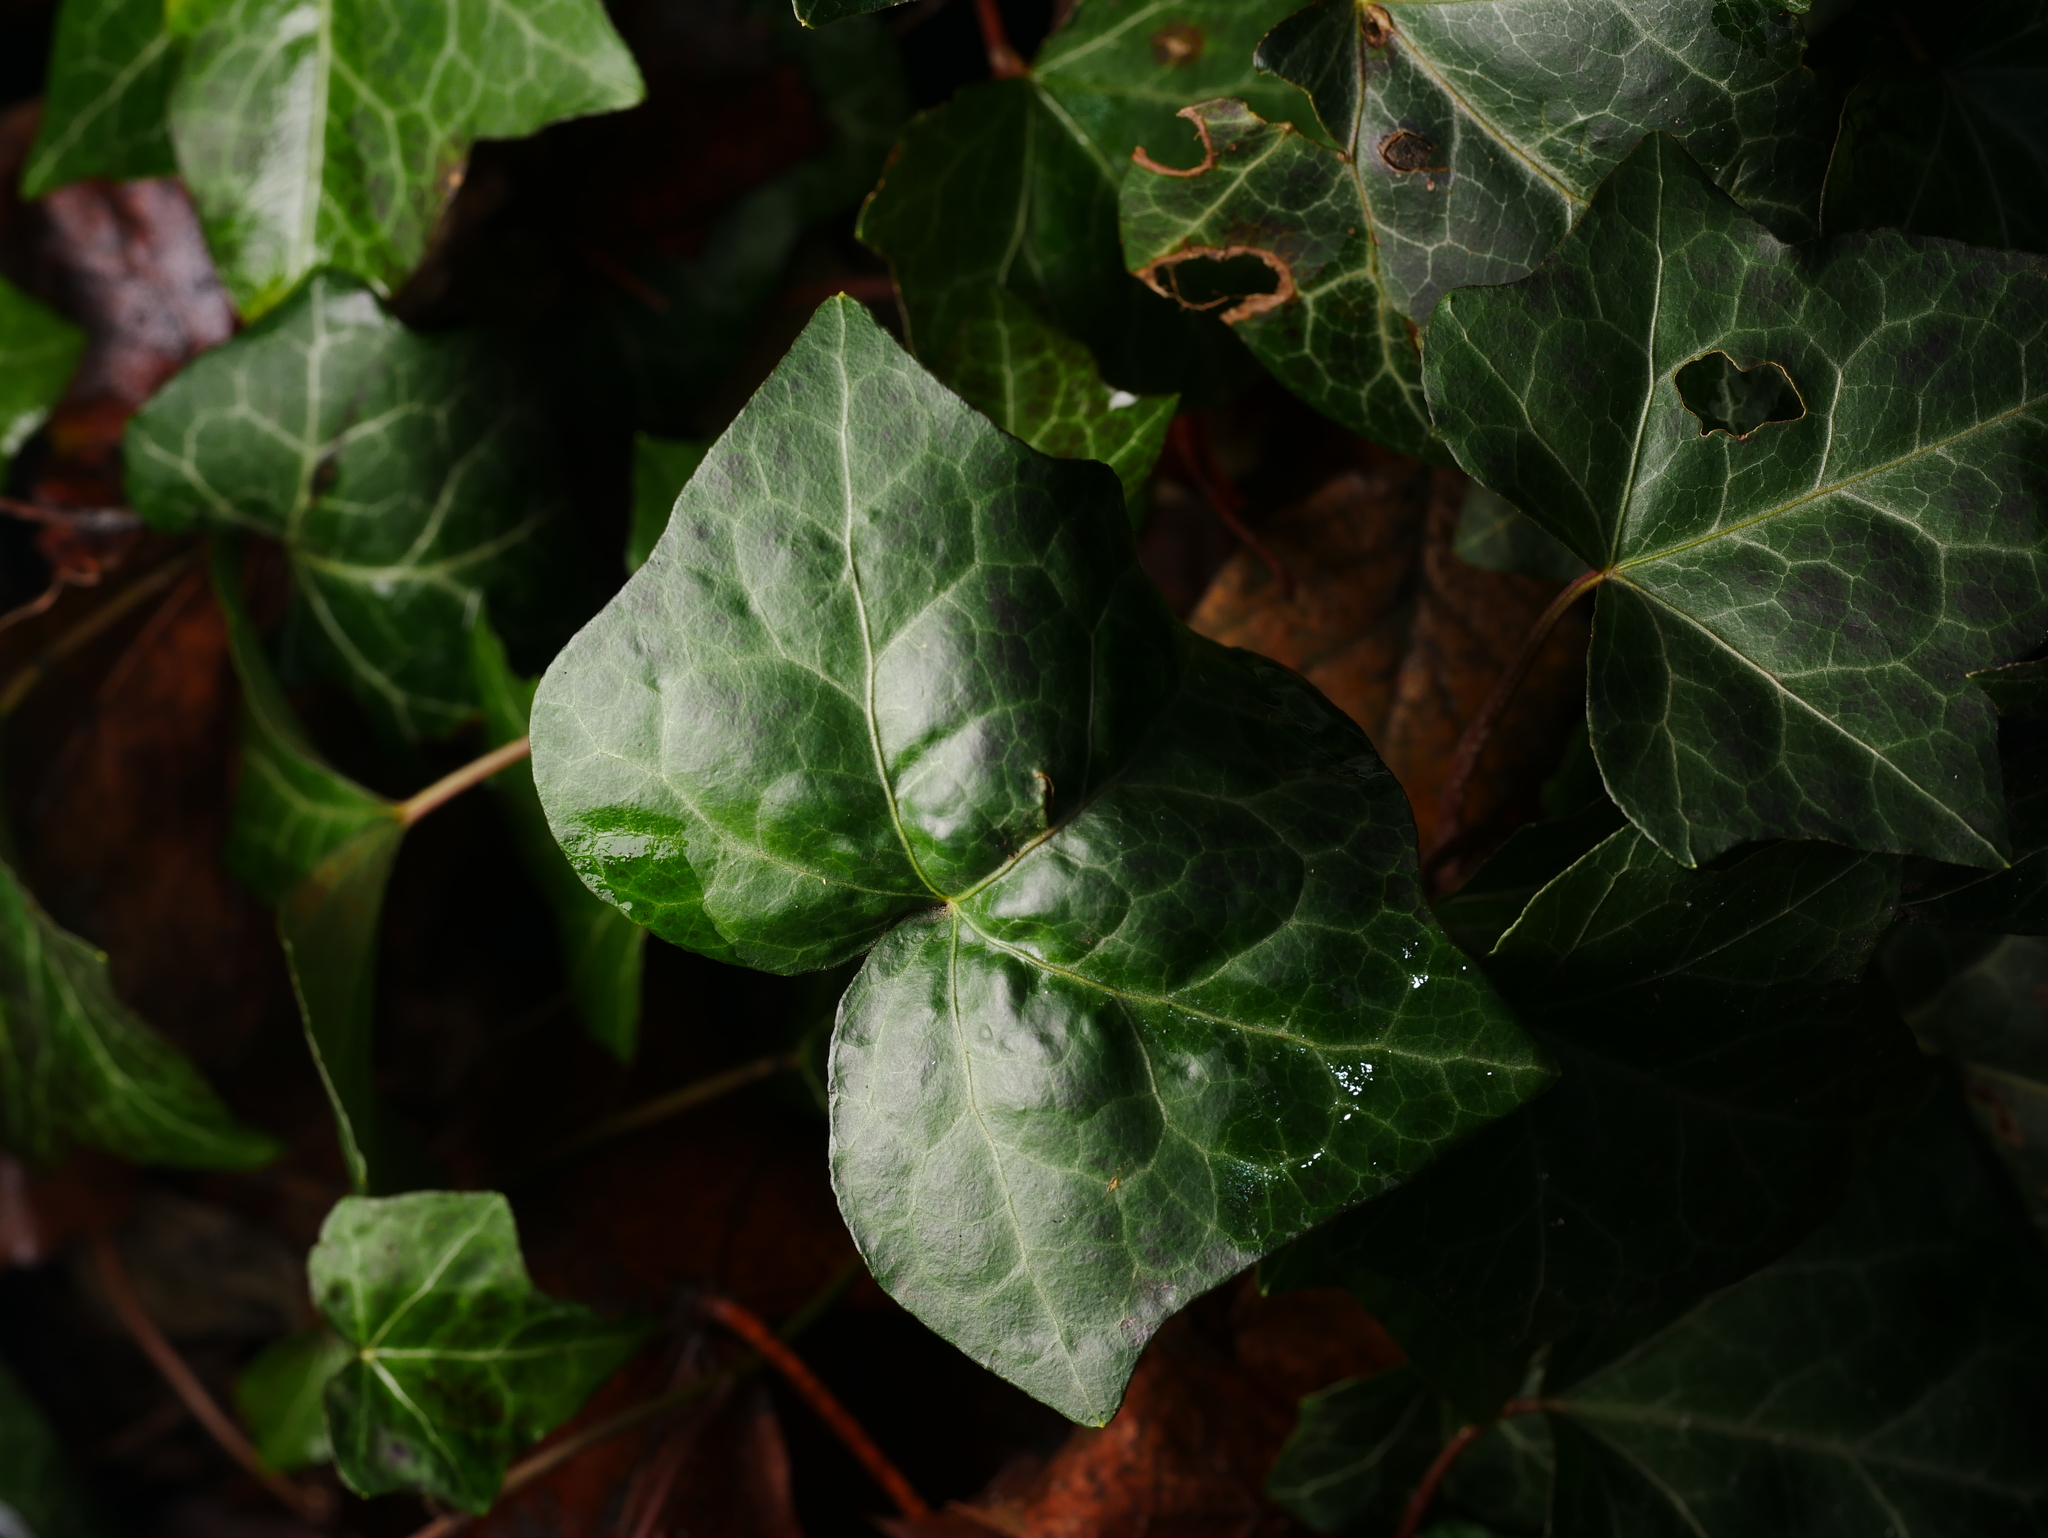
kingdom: Plantae
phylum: Tracheophyta
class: Magnoliopsida
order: Apiales
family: Araliaceae
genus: Hedera
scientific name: Hedera helix
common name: Ivy
